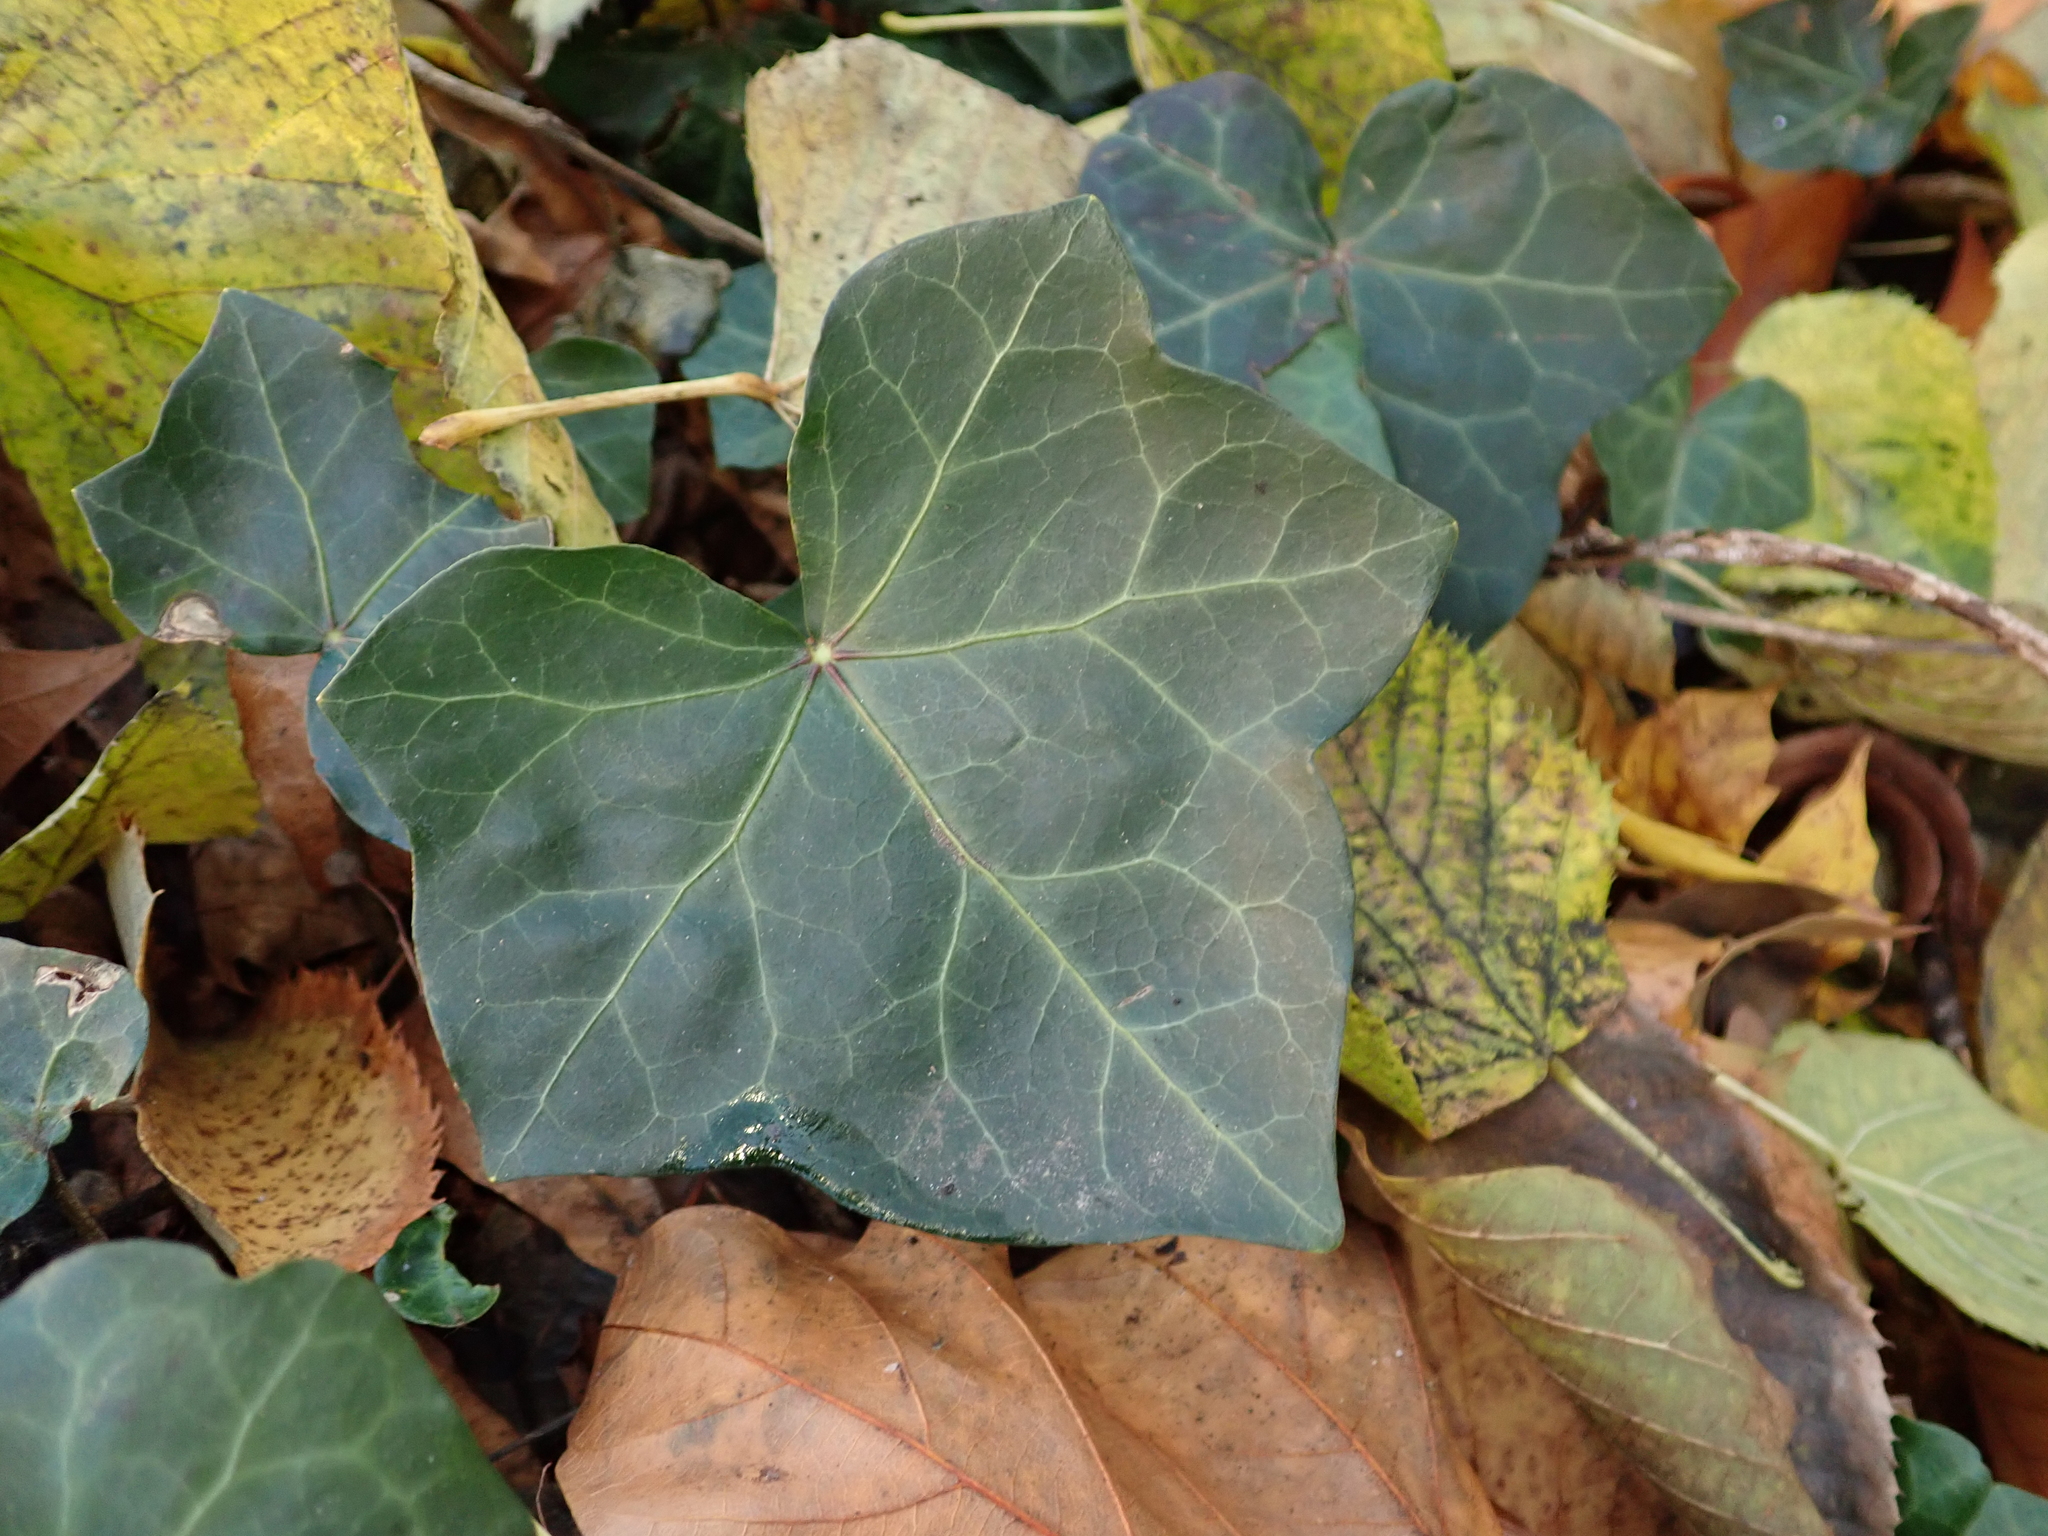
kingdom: Plantae
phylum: Tracheophyta
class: Magnoliopsida
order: Apiales
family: Araliaceae
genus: Hedera
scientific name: Hedera helix
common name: Ivy
